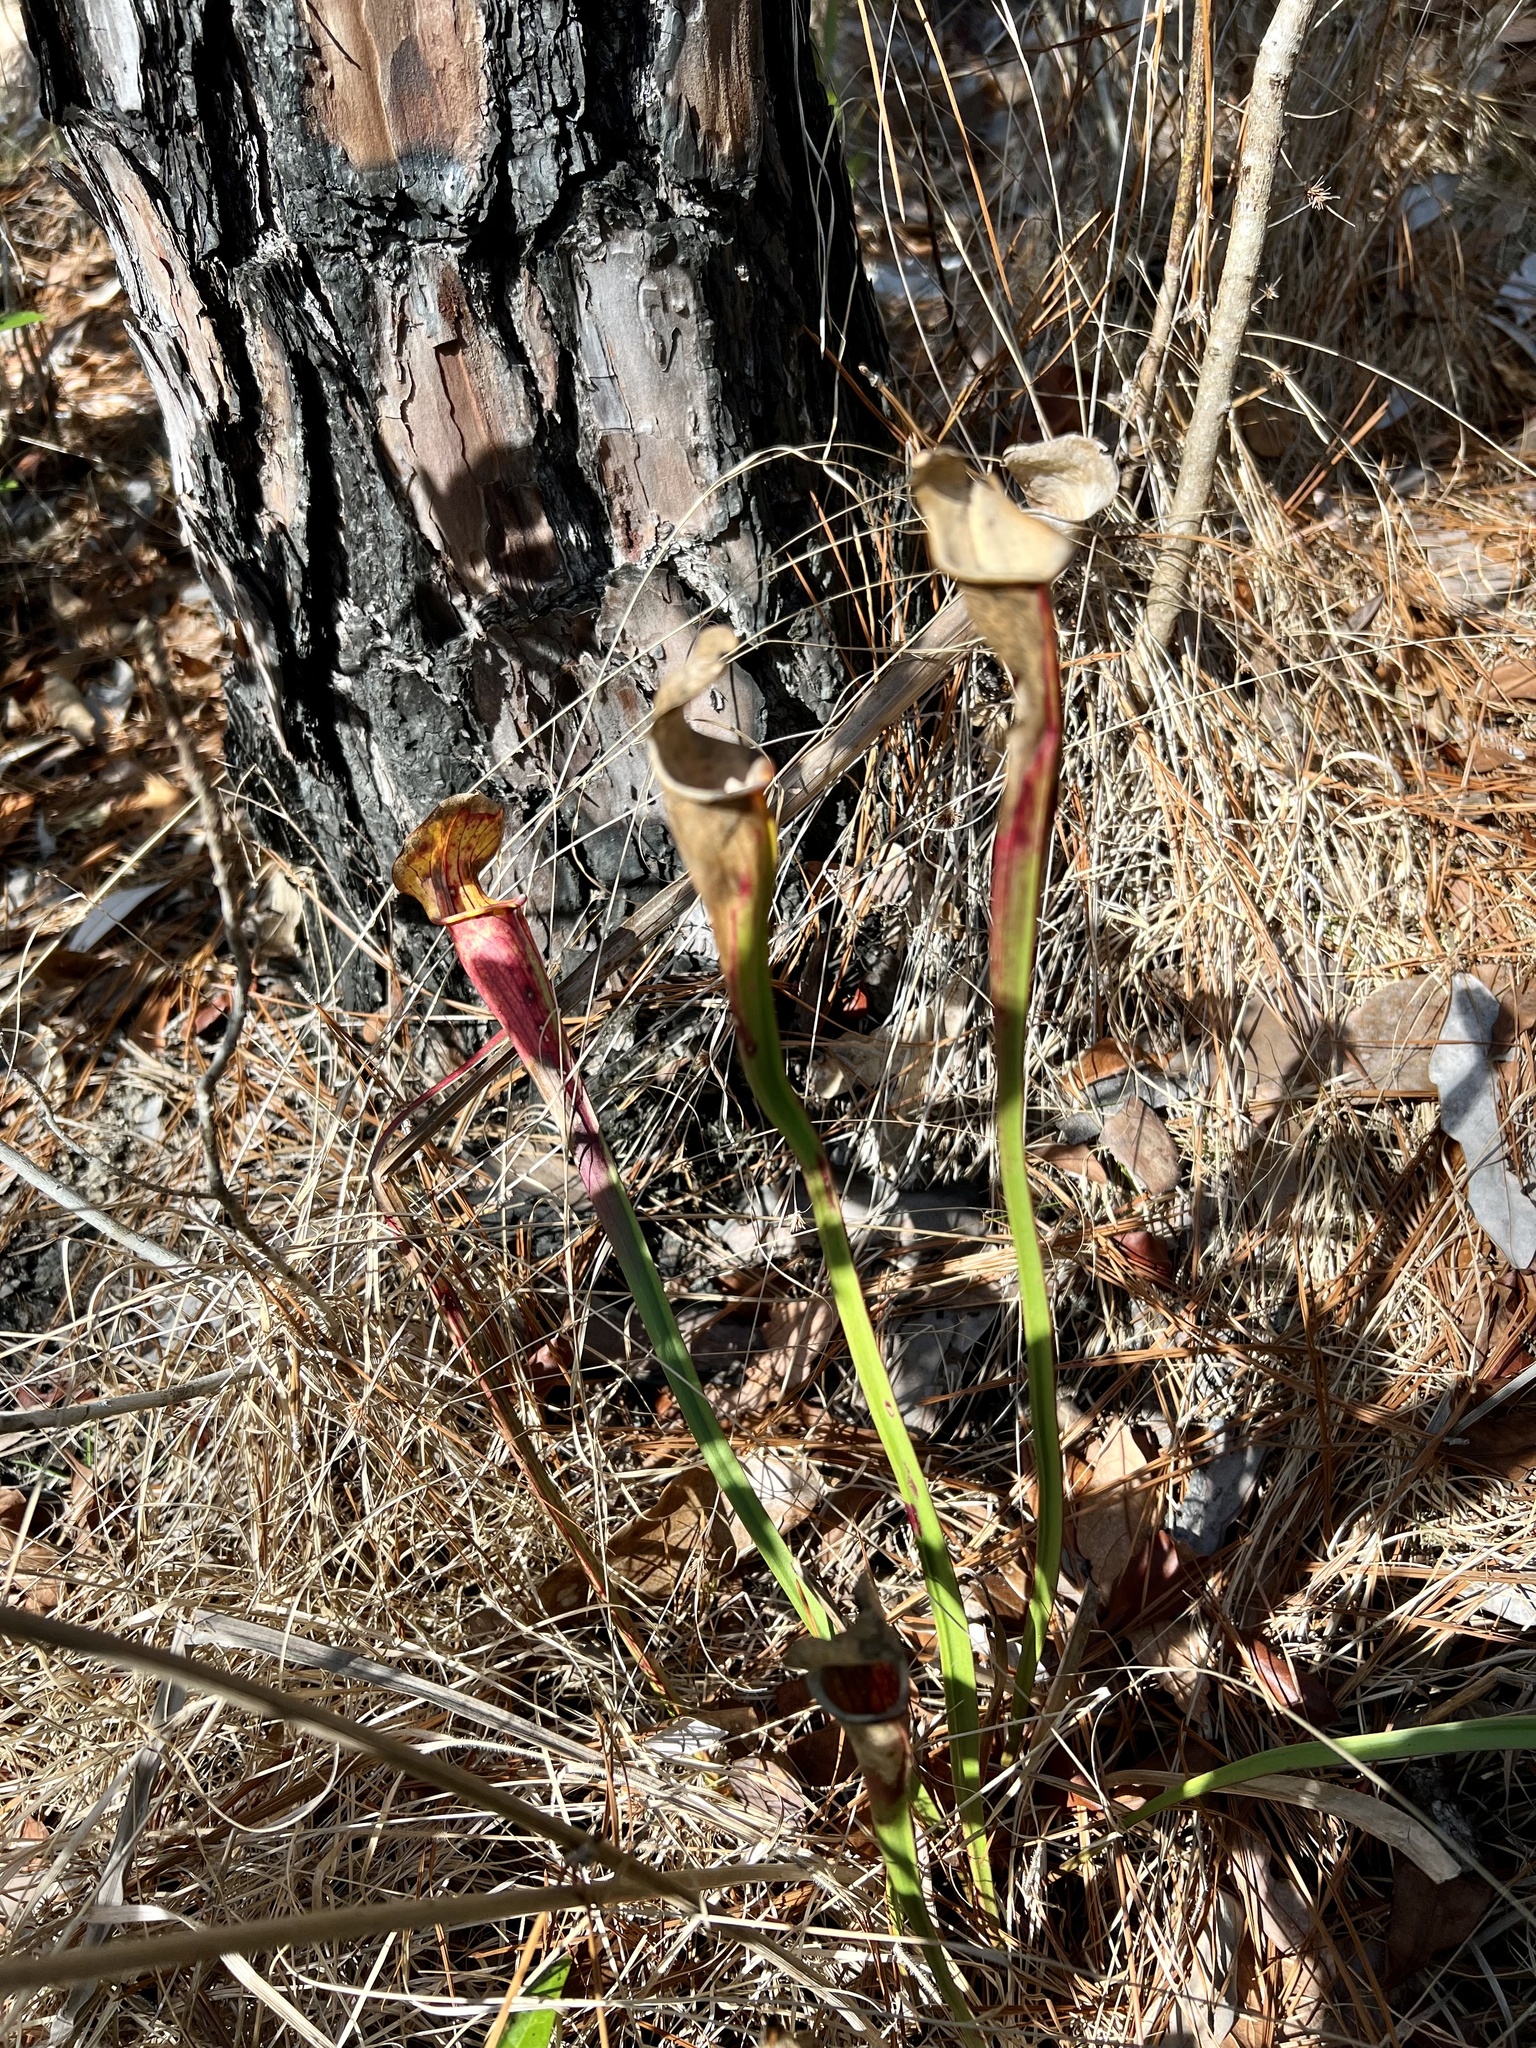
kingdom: Plantae
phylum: Tracheophyta
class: Magnoliopsida
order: Ericales
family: Sarraceniaceae
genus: Sarracenia
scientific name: Sarracenia alata
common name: Yellow trumpets
